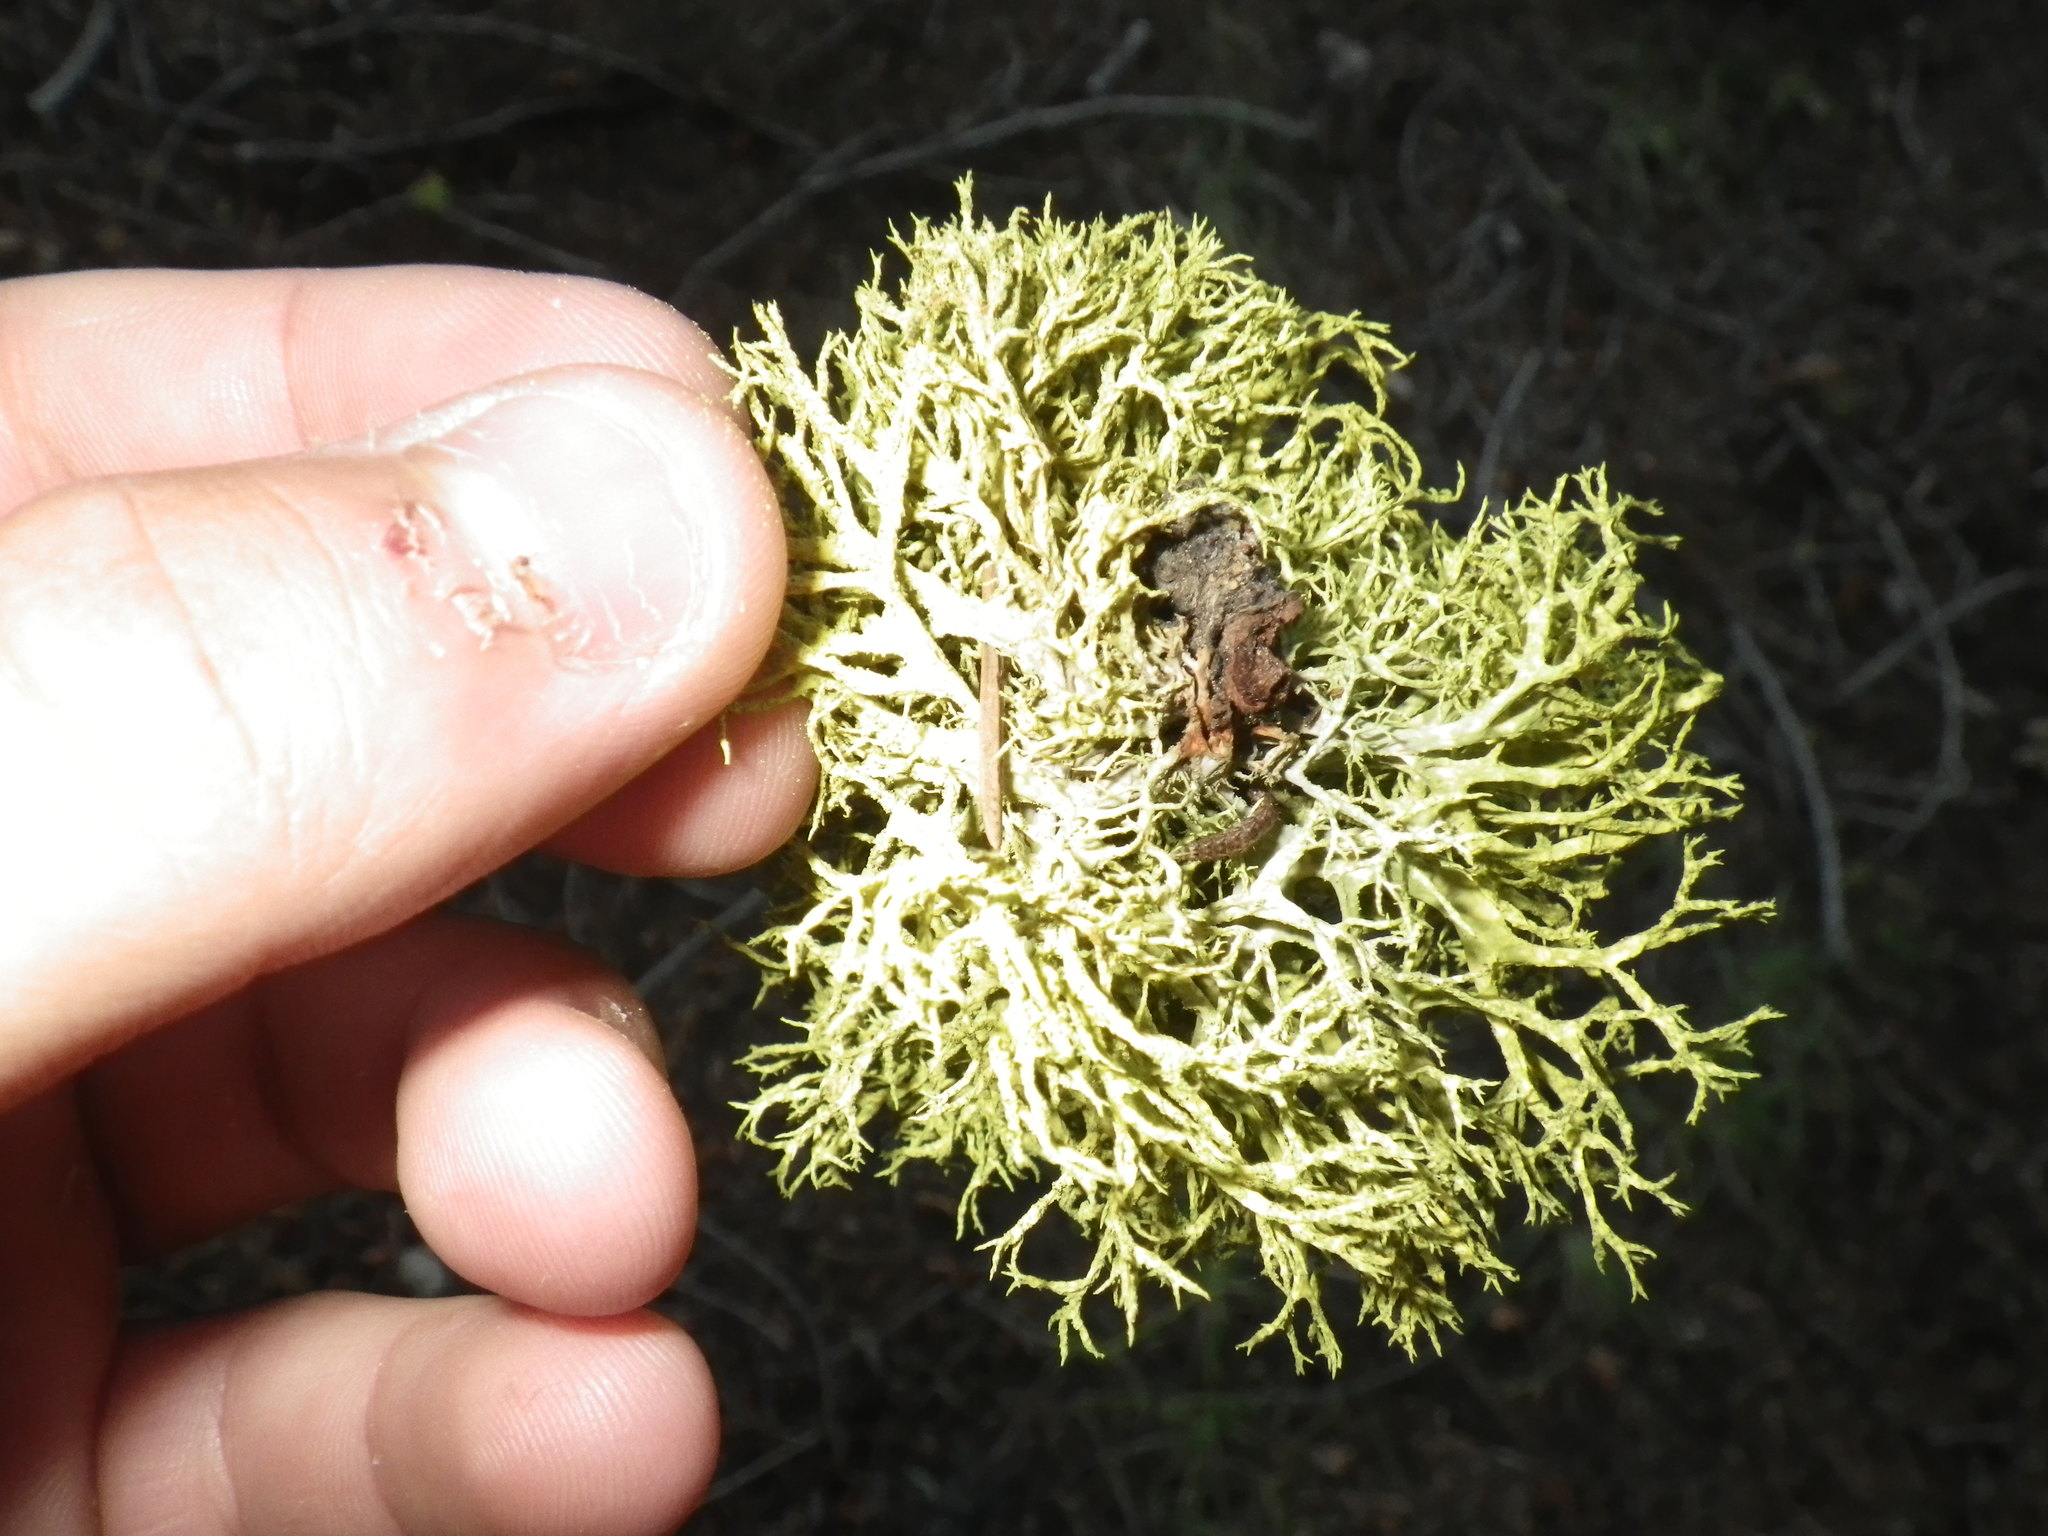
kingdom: Fungi
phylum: Ascomycota
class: Lecanoromycetes
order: Lecanorales
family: Parmeliaceae
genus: Letharia
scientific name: Letharia vulpina
